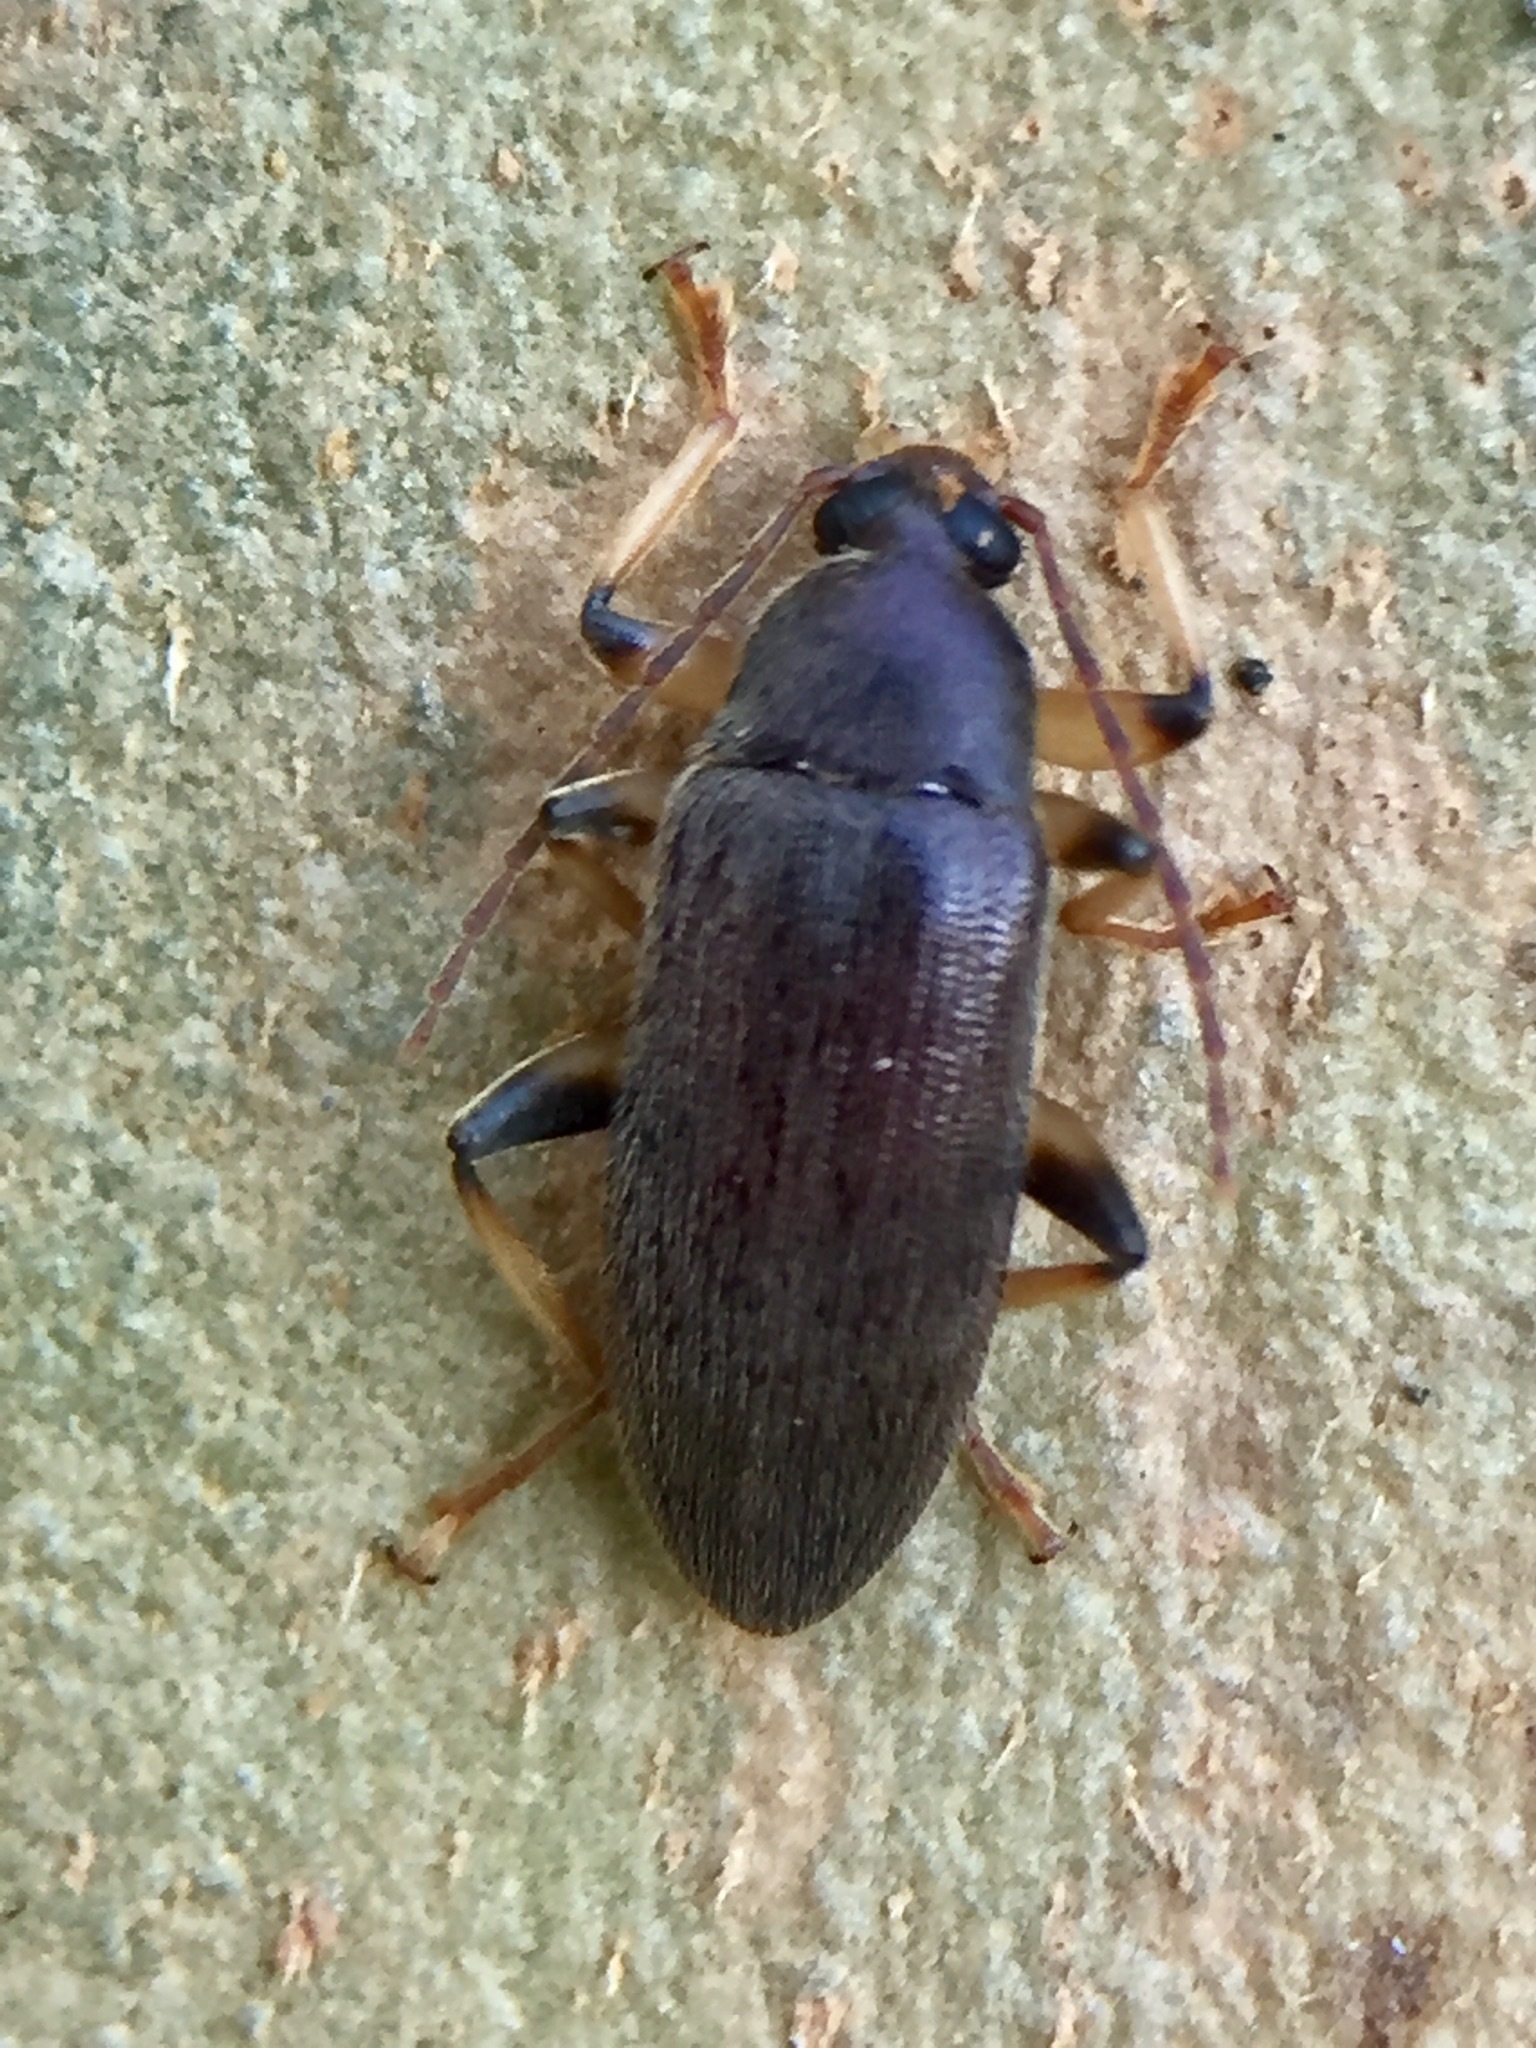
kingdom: Animalia
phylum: Arthropoda
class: Insecta
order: Coleoptera
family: Tenebrionidae
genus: Homotrysis
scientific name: Homotrysis
